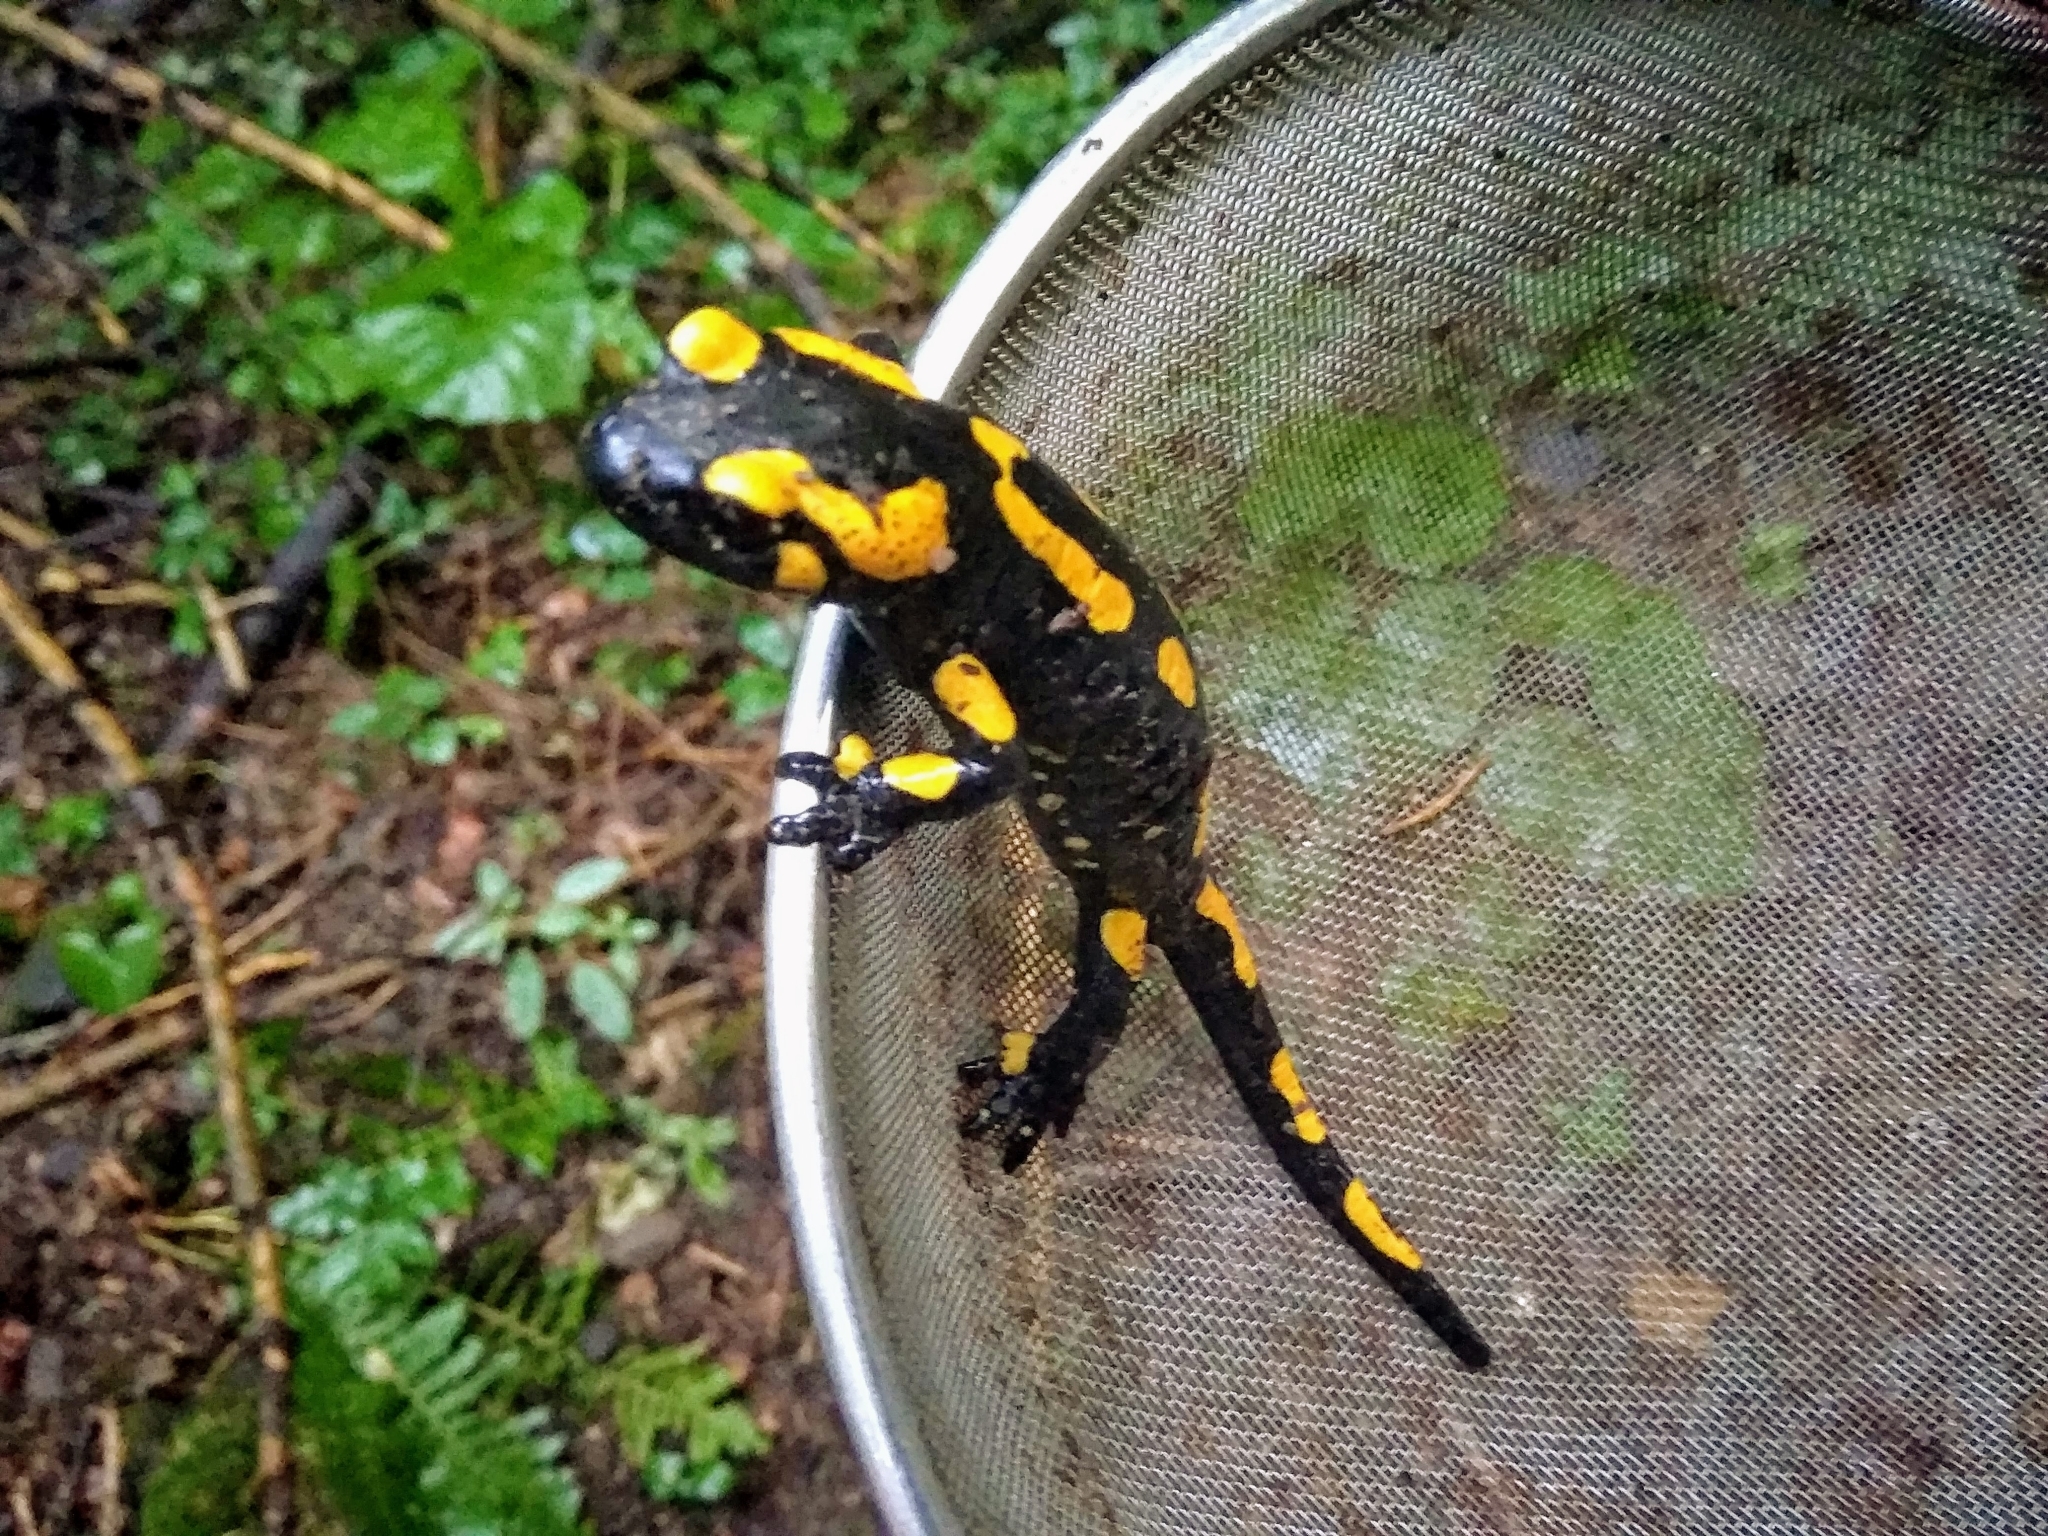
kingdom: Animalia
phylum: Chordata
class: Amphibia
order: Caudata
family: Salamandridae
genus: Salamandra
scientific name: Salamandra salamandra
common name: Fire salamander
